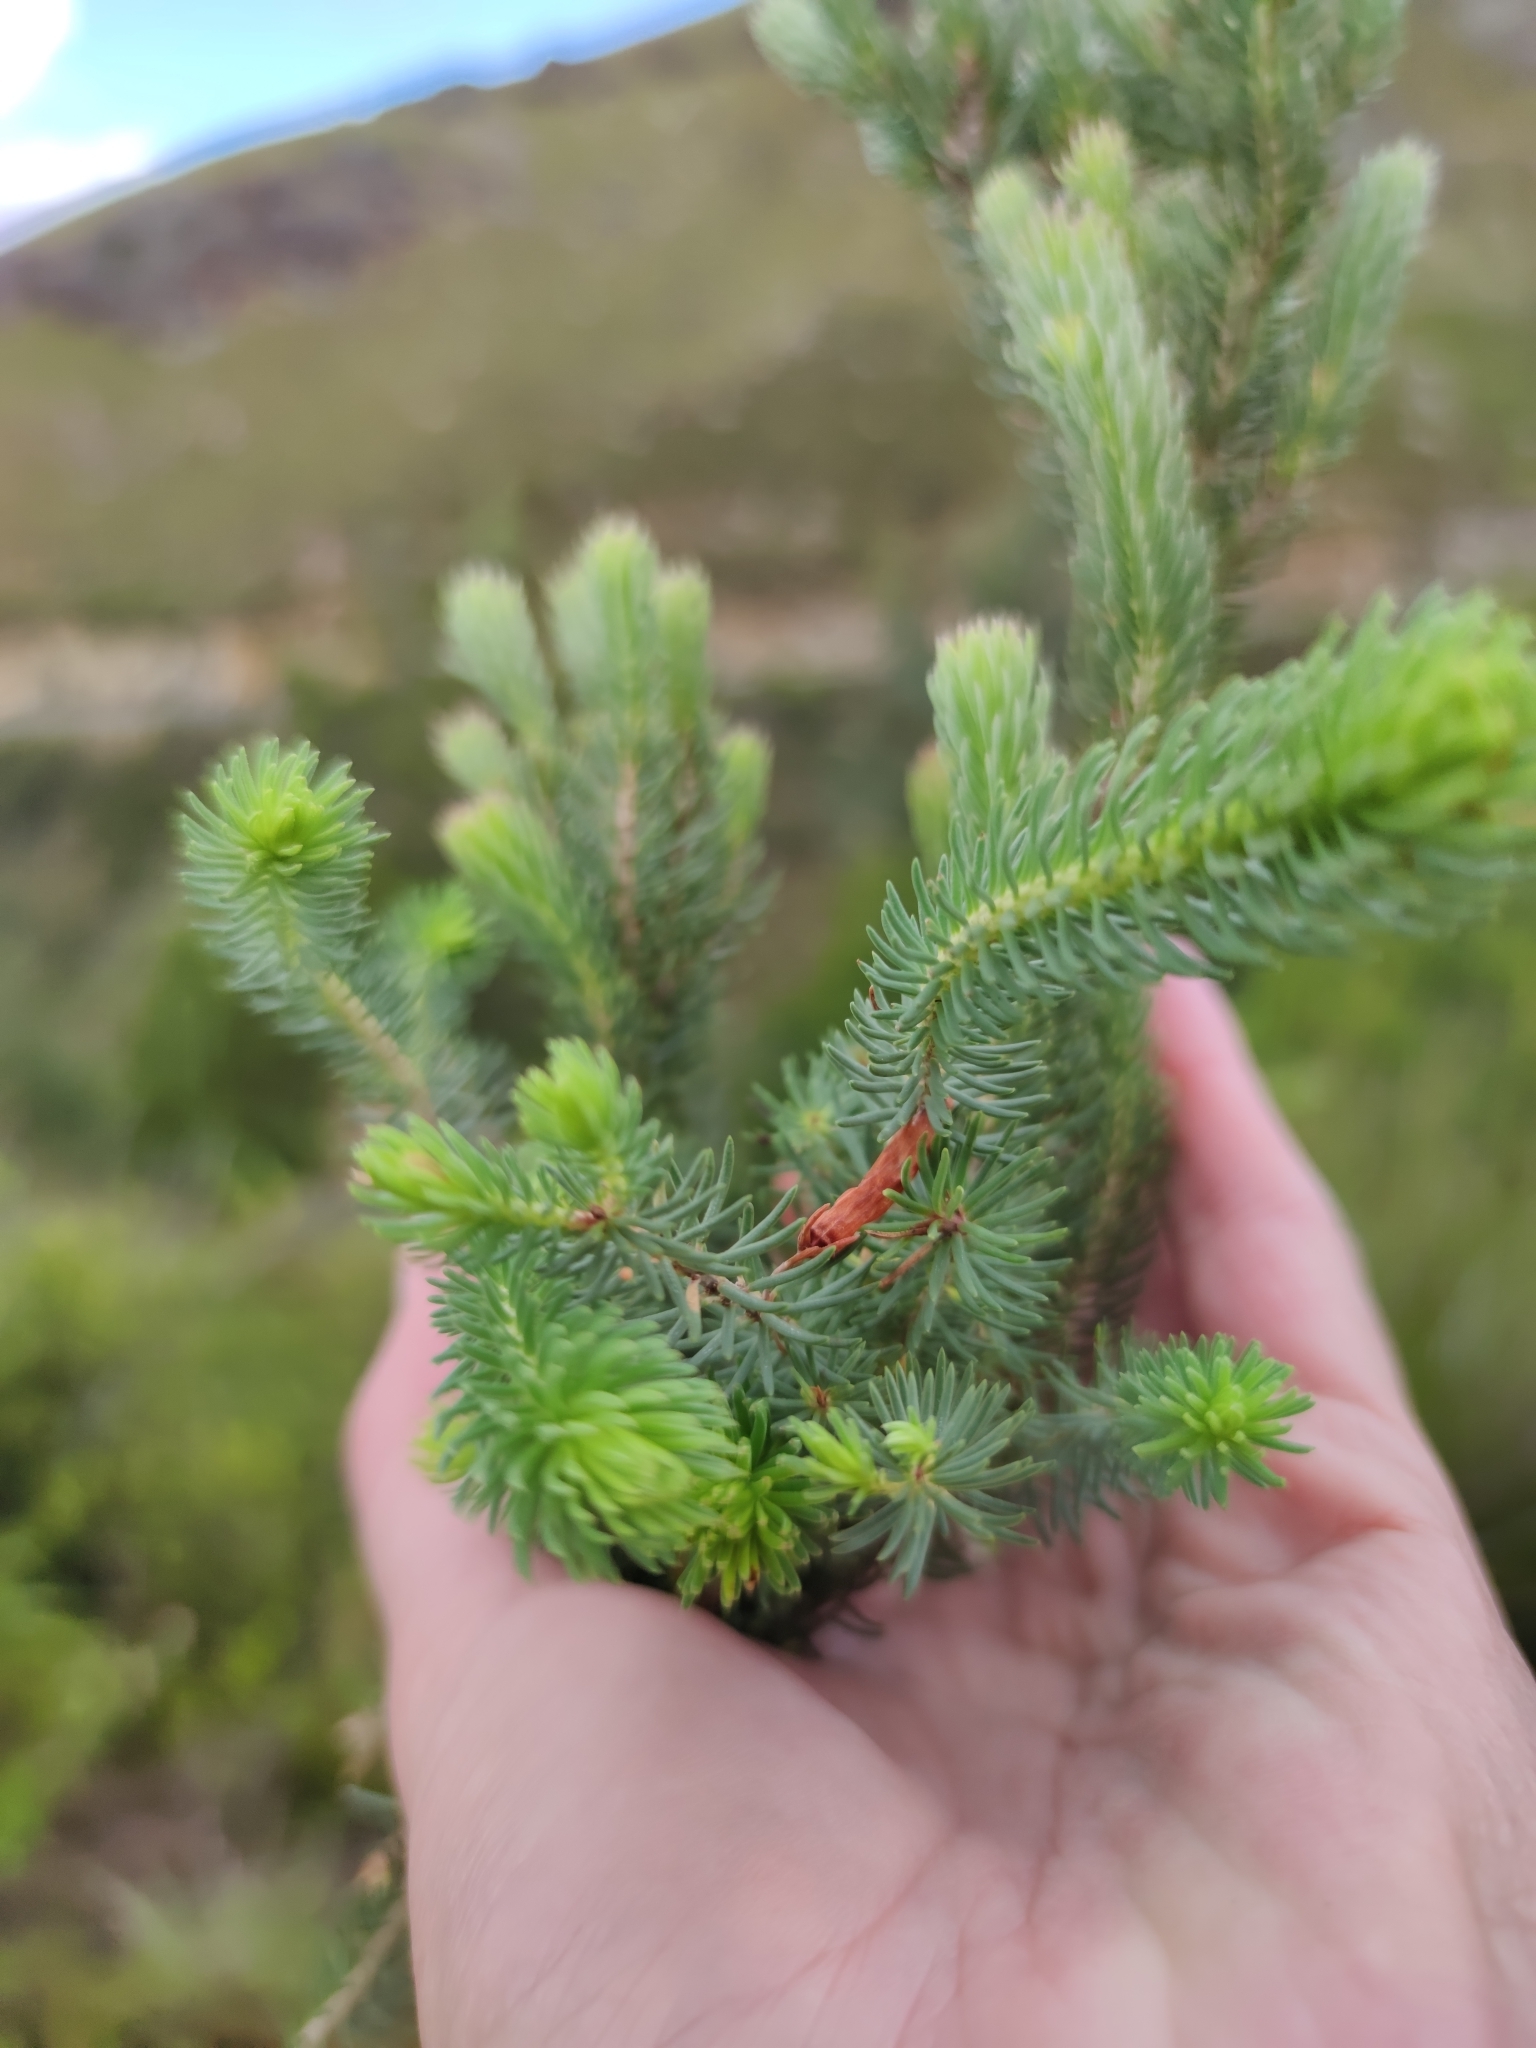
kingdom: Plantae
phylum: Tracheophyta
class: Magnoliopsida
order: Ericales
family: Ericaceae
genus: Erica
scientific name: Erica pinea
